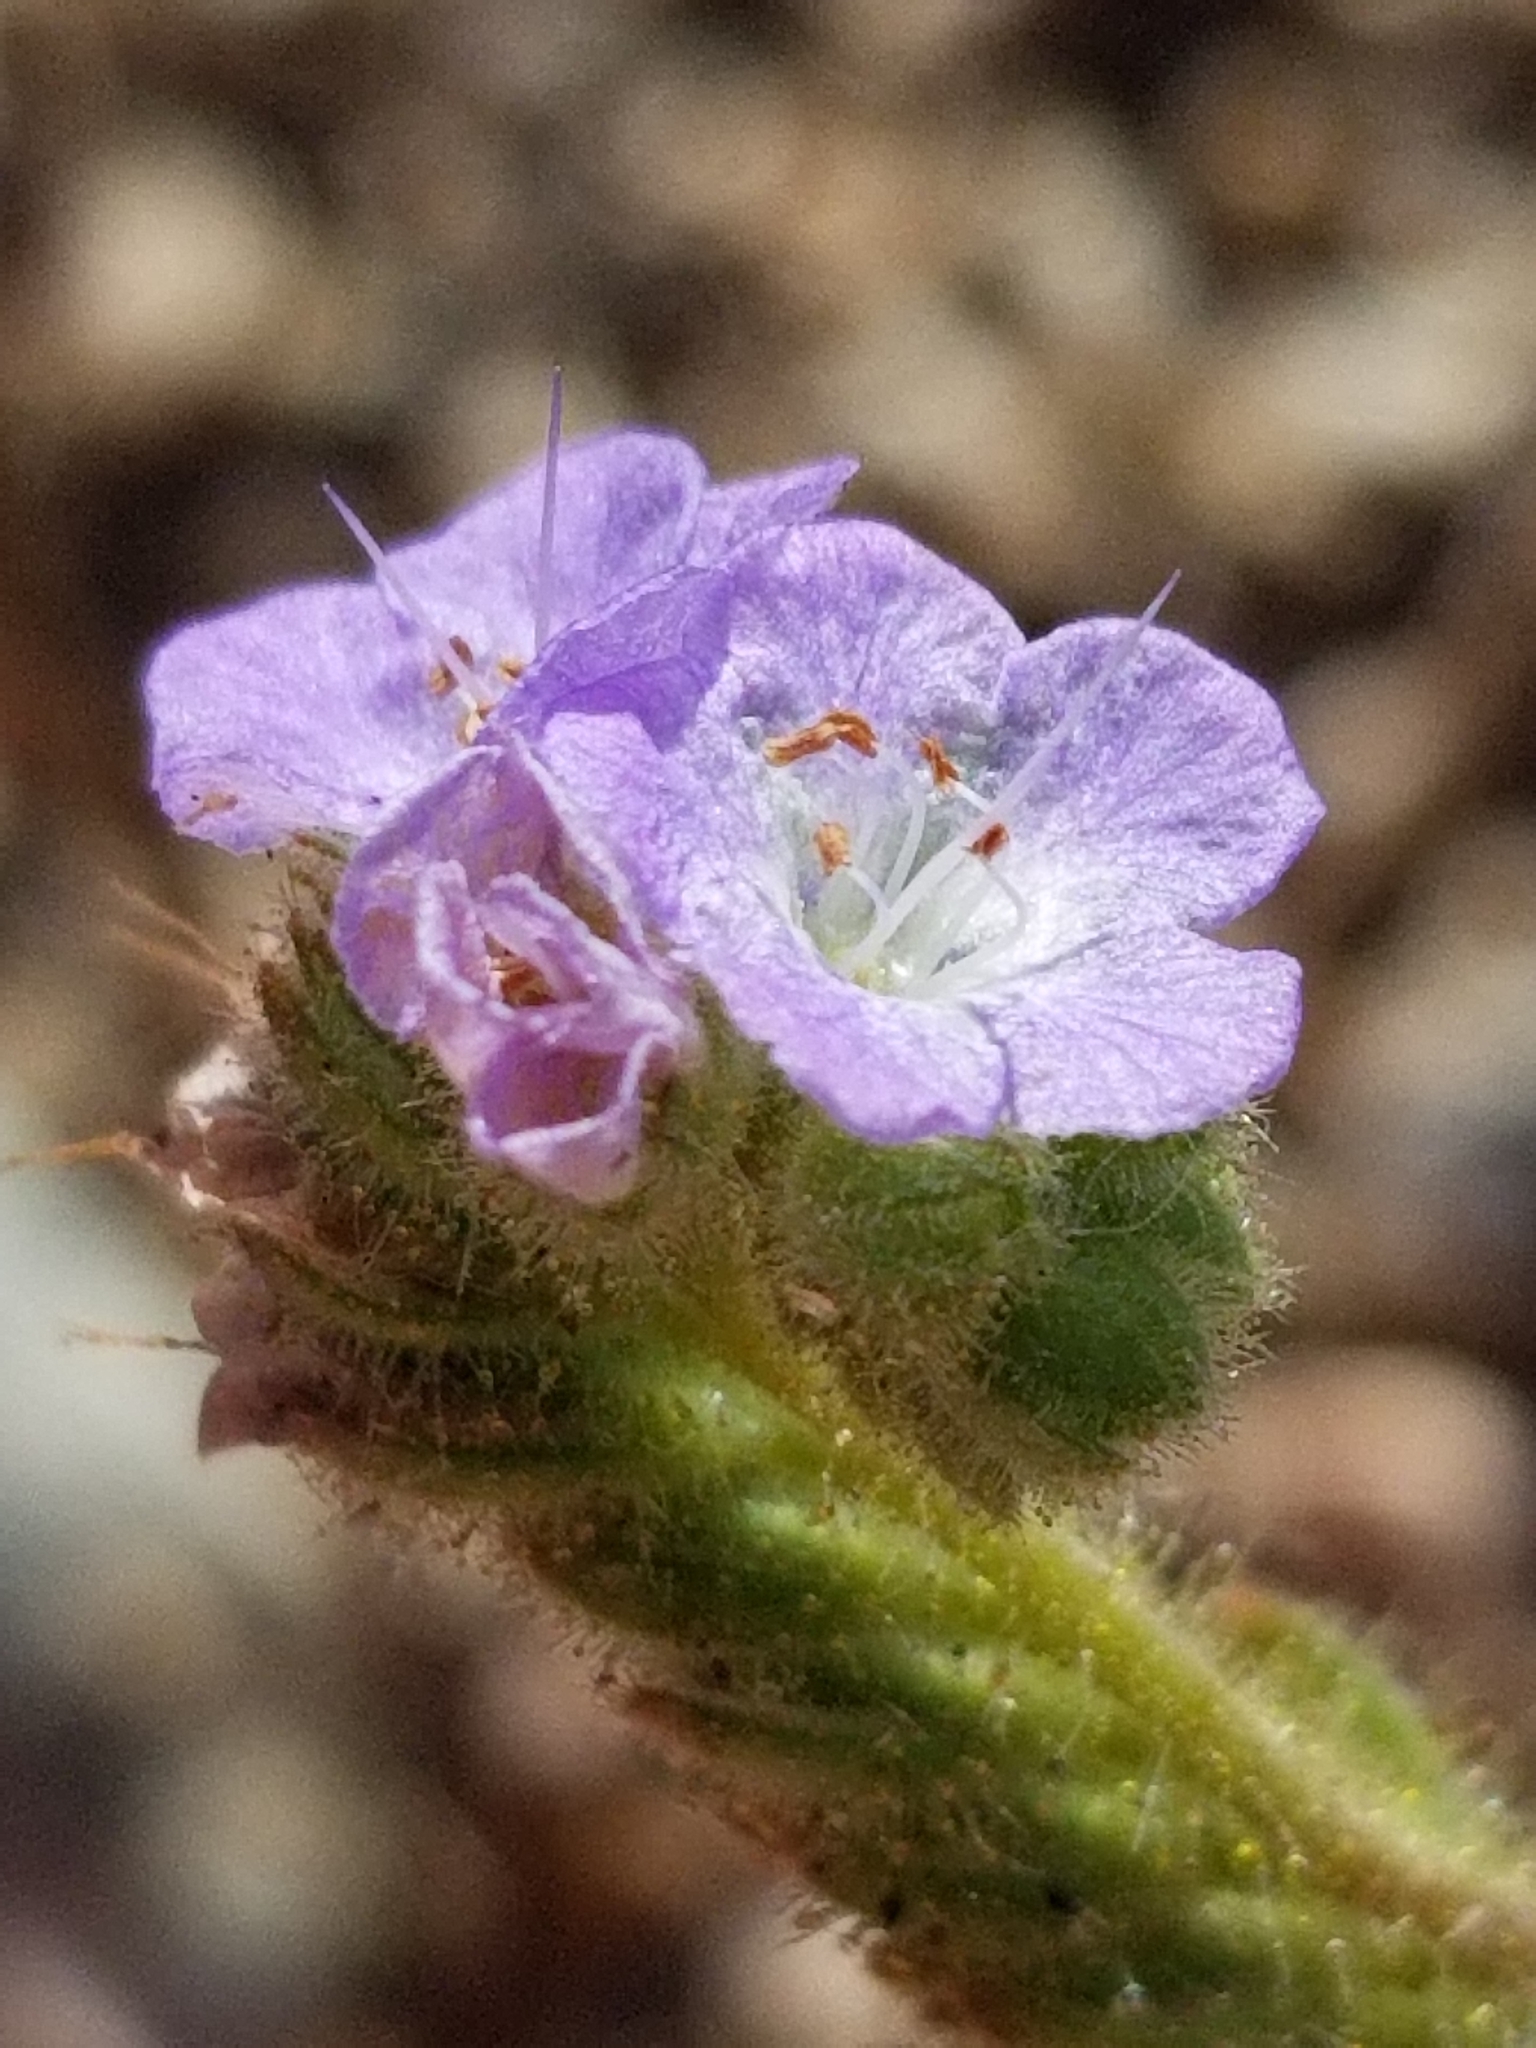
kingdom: Plantae
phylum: Tracheophyta
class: Magnoliopsida
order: Boraginales
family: Hydrophyllaceae
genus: Phacelia
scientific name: Phacelia distans
